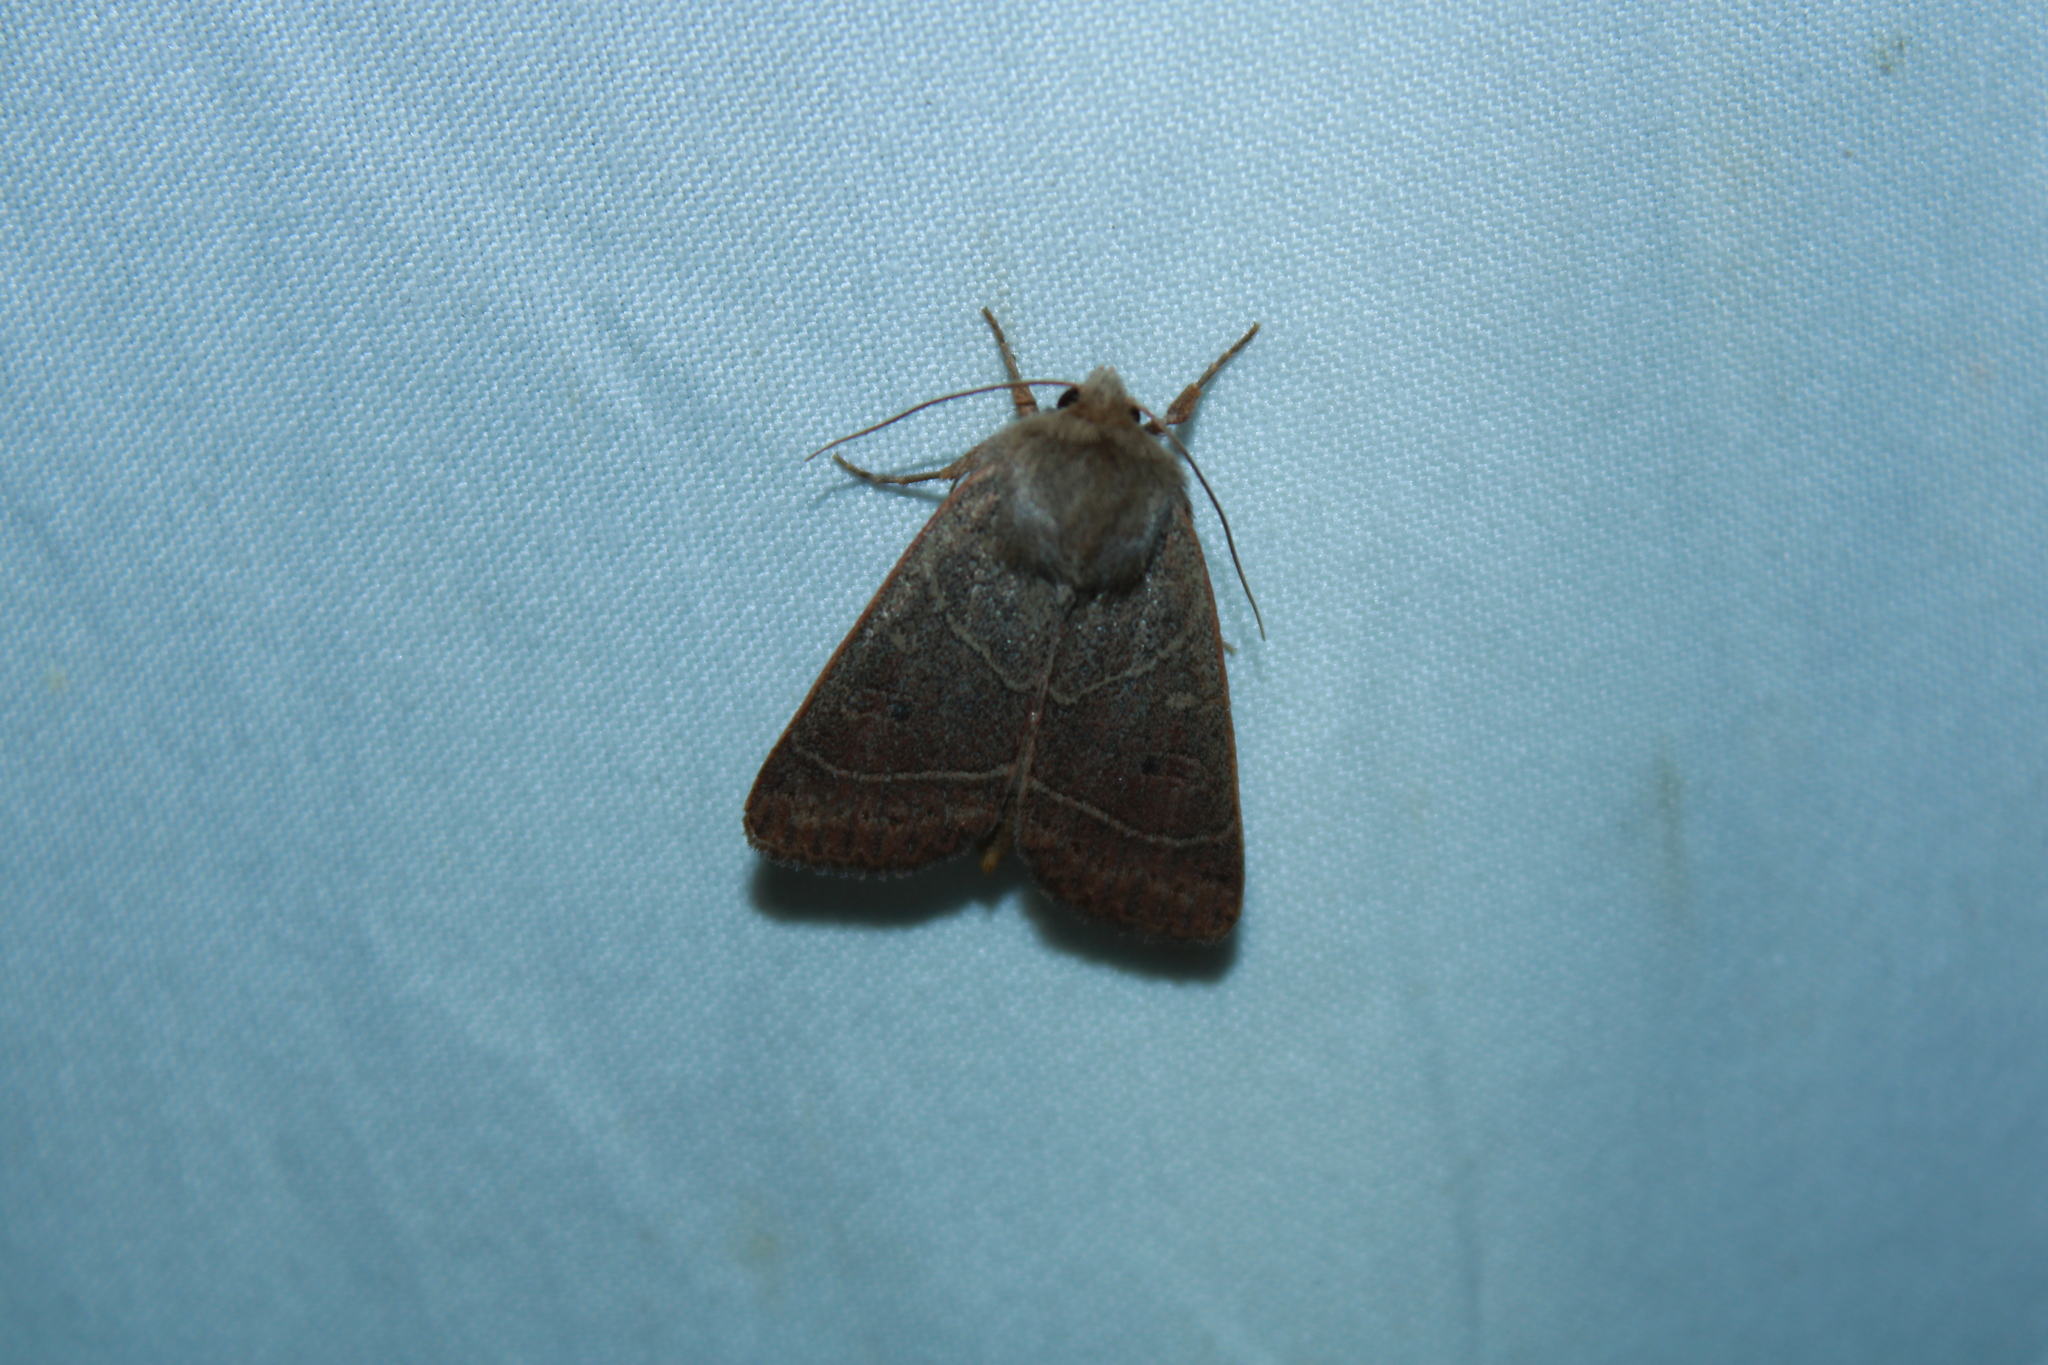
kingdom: Animalia
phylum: Arthropoda
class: Insecta
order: Lepidoptera
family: Noctuidae
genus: Ulolonche
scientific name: Ulolonche culea
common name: Sheathed quaker
